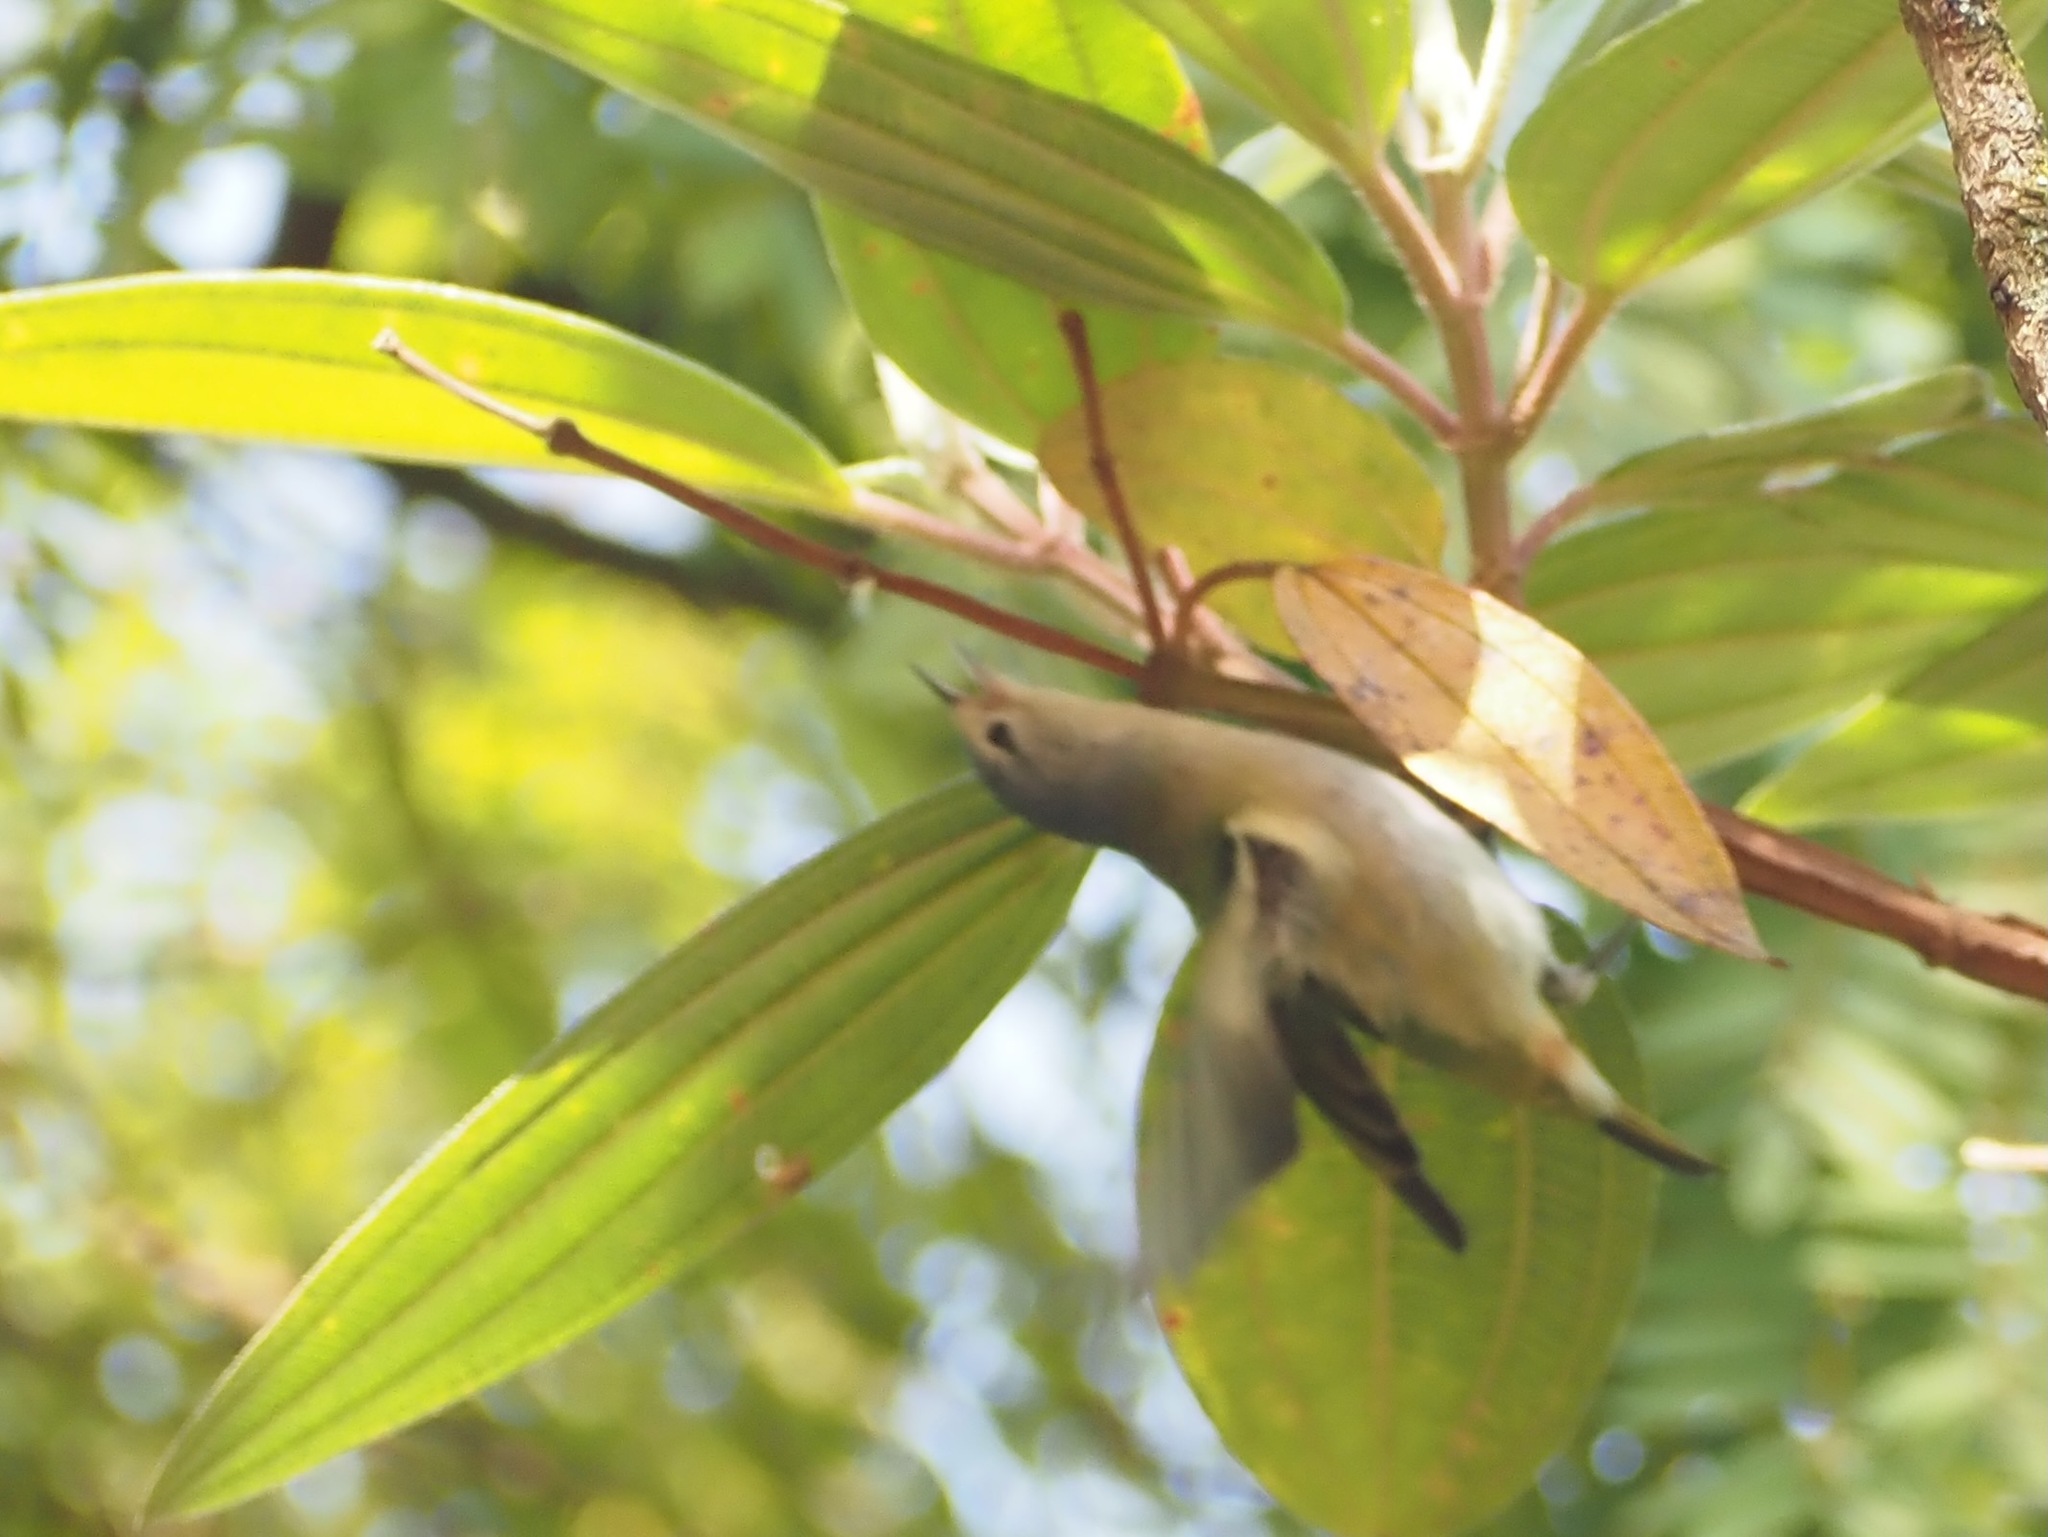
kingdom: Animalia
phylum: Chordata
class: Aves
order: Passeriformes
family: Thraupidae
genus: Conirostrum
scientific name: Conirostrum speciosum
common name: Chestnut-vented conebill
